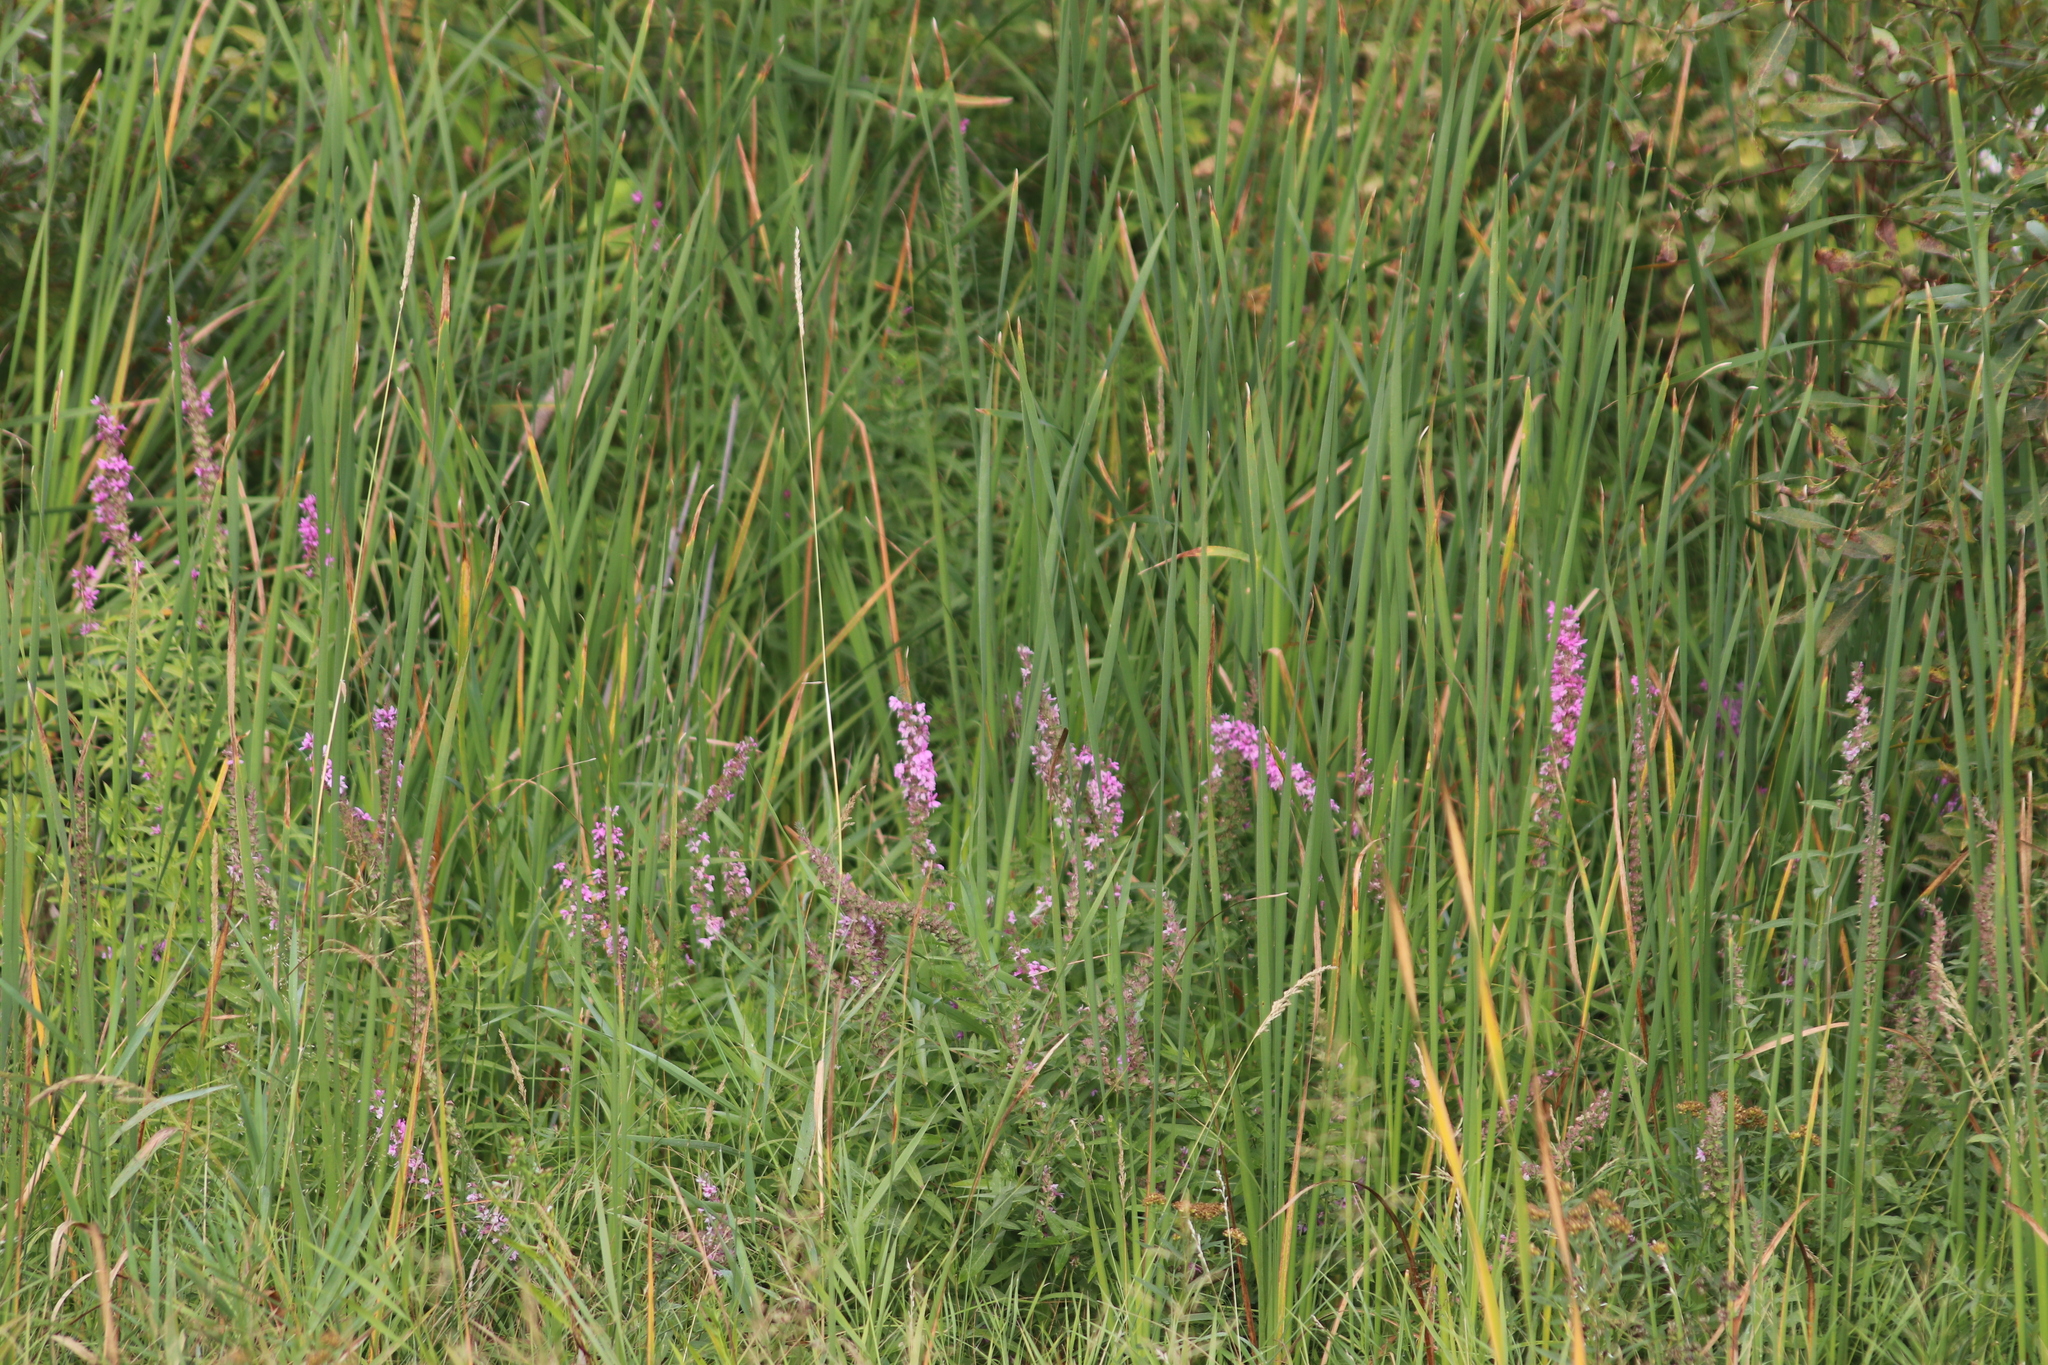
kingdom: Plantae
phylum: Tracheophyta
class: Magnoliopsida
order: Myrtales
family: Lythraceae
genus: Lythrum
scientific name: Lythrum salicaria
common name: Purple loosestrife
